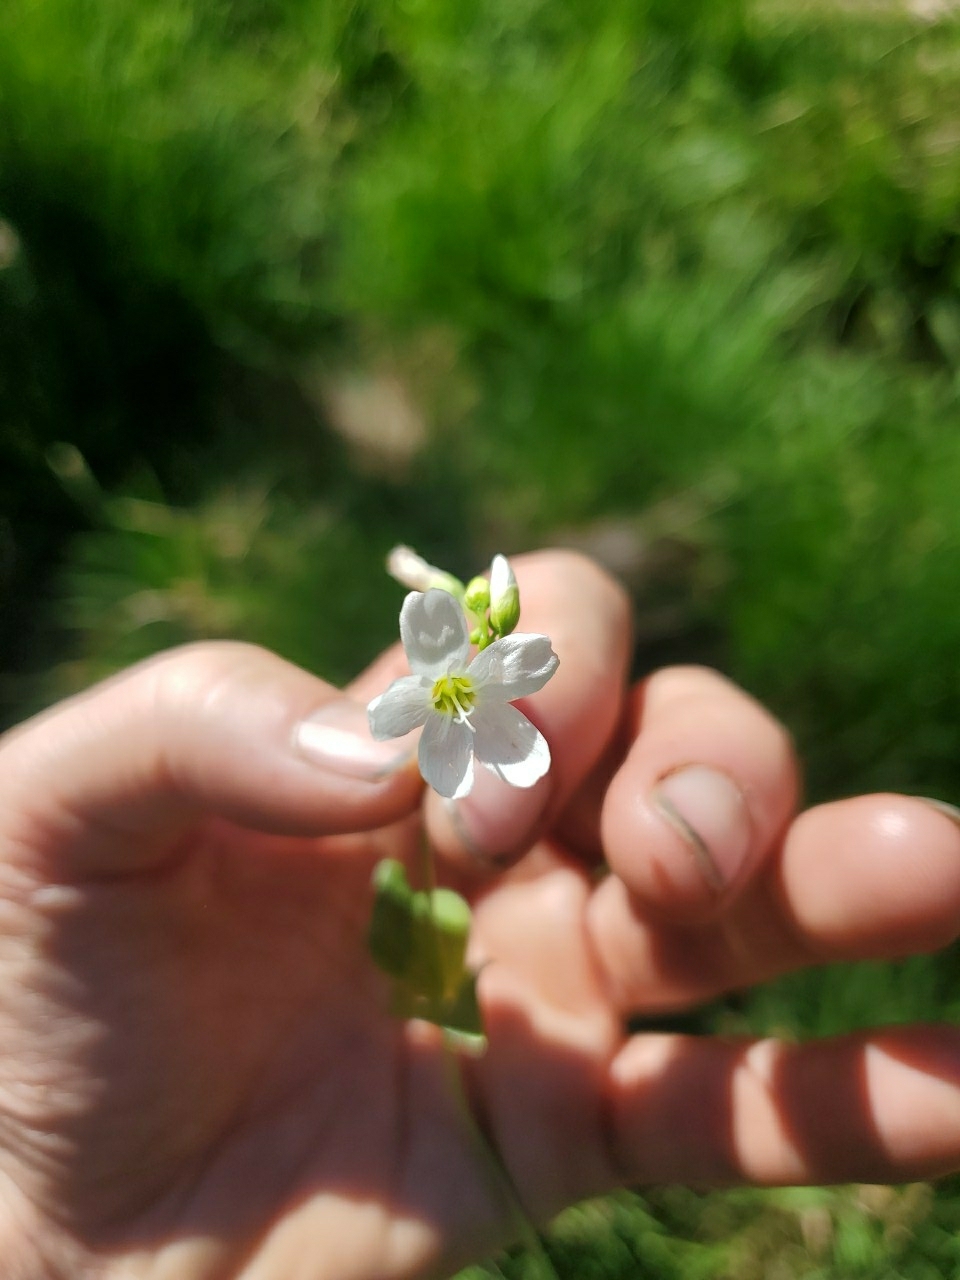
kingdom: Plantae
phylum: Tracheophyta
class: Magnoliopsida
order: Caryophyllales
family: Montiaceae
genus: Claytonia
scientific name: Claytonia cordifolia
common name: Broad-leaved spring beauty
